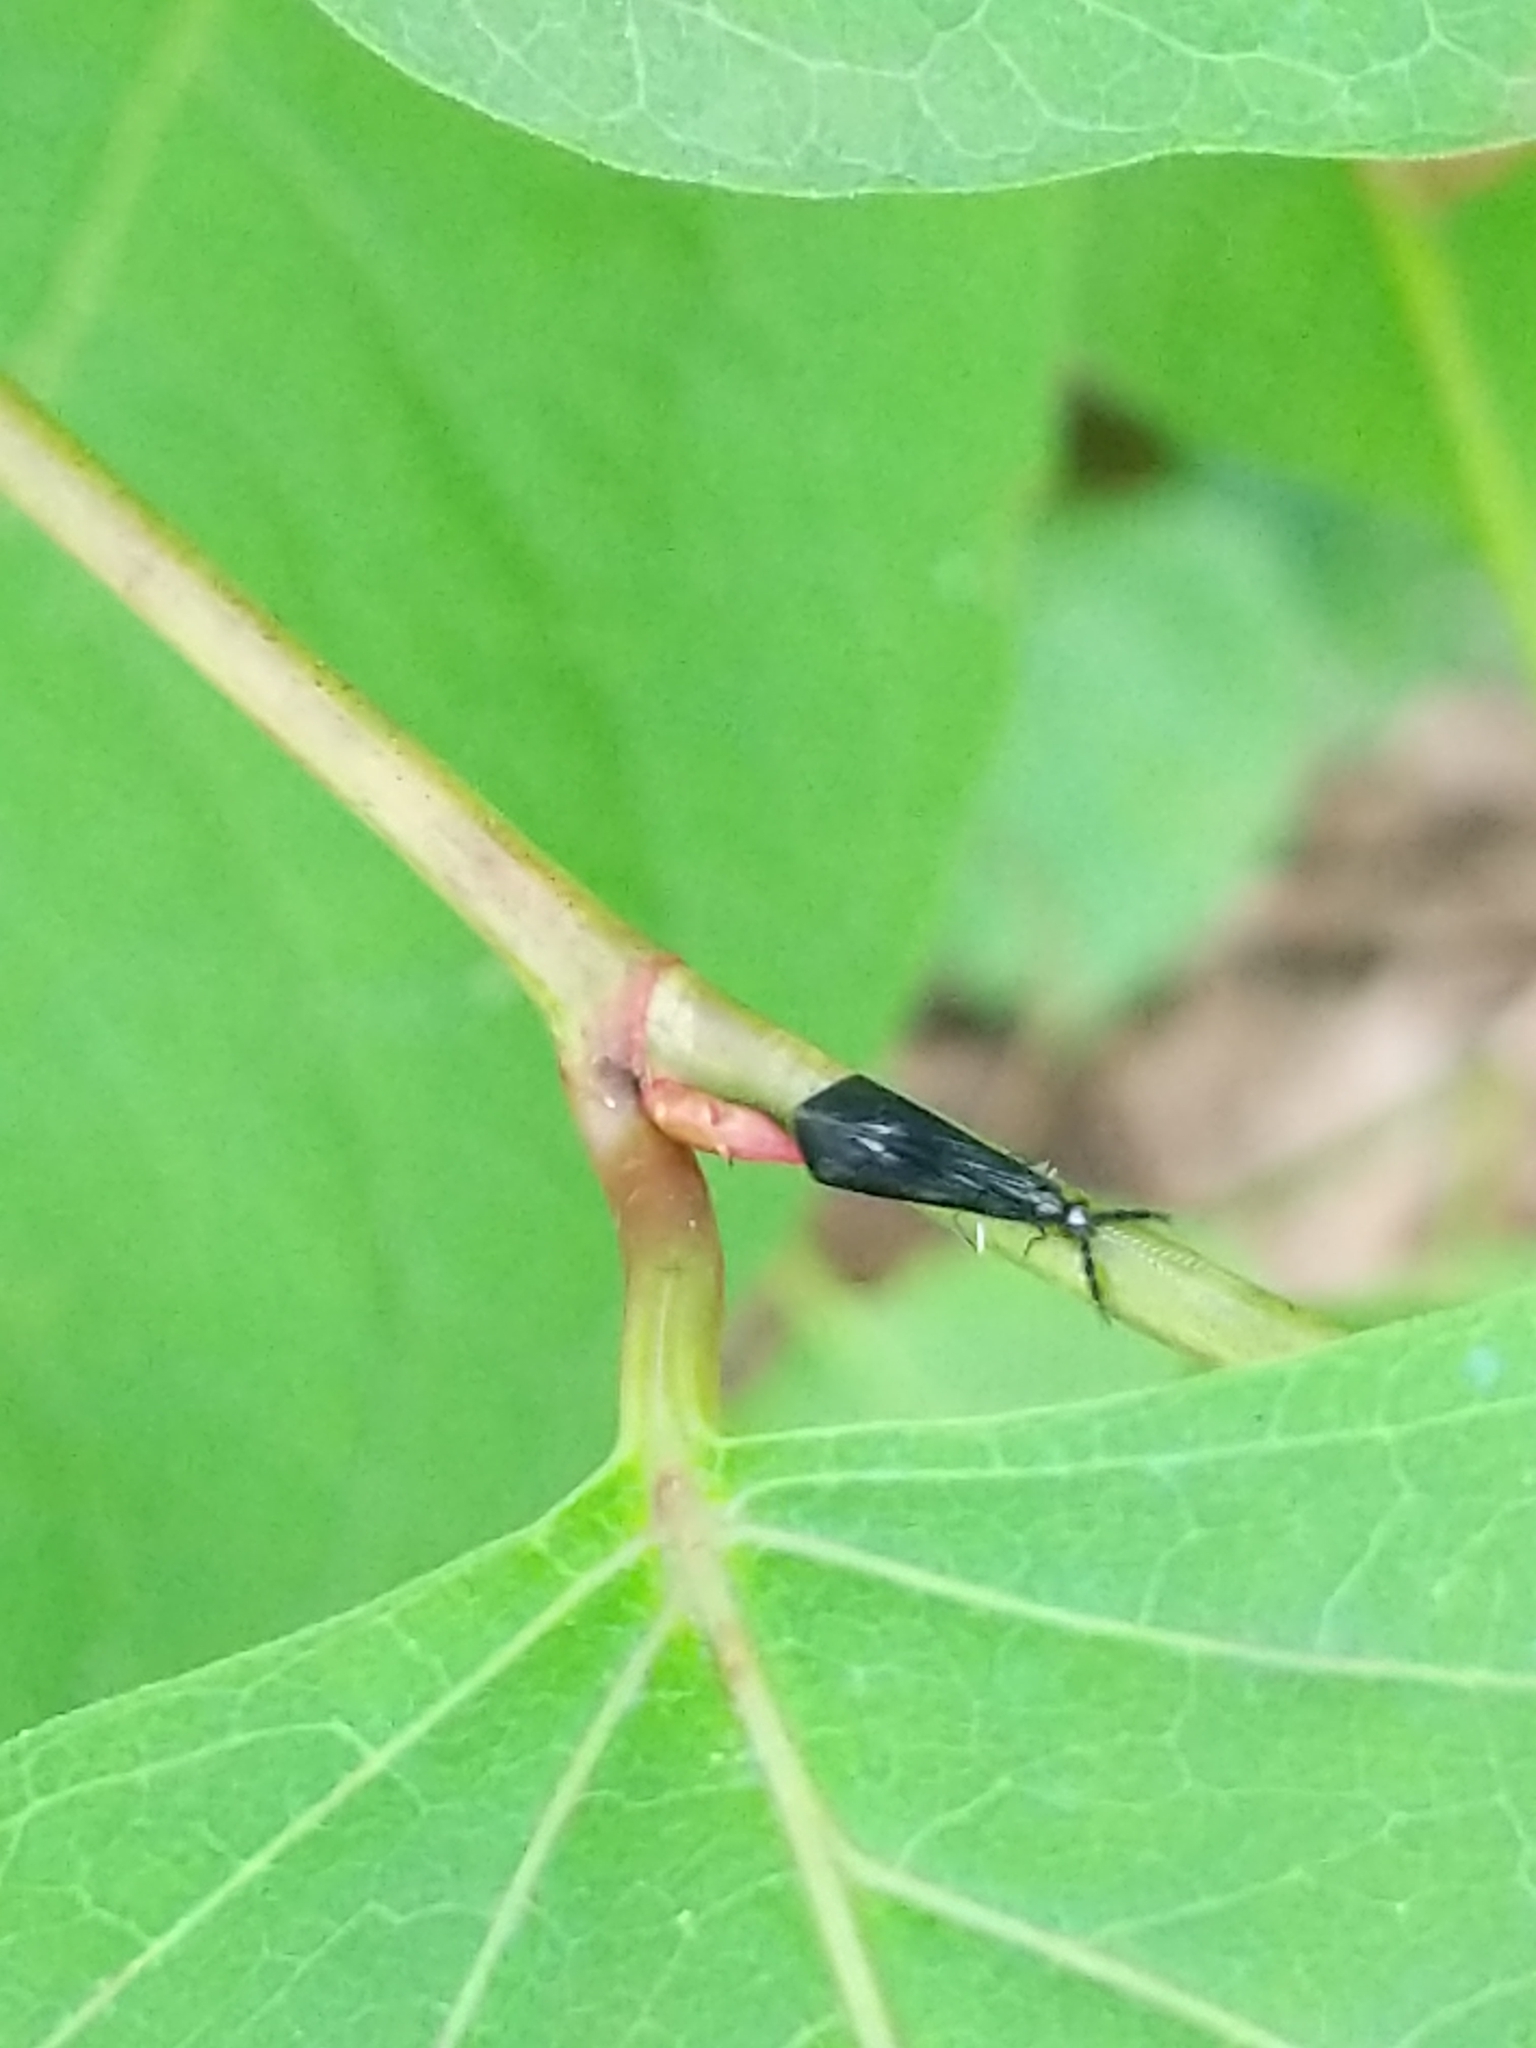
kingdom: Animalia
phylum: Arthropoda
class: Insecta
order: Trichoptera
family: Leptoceridae
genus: Mystacides
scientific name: Mystacides sepulchralis
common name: Black dancer caddisfly
